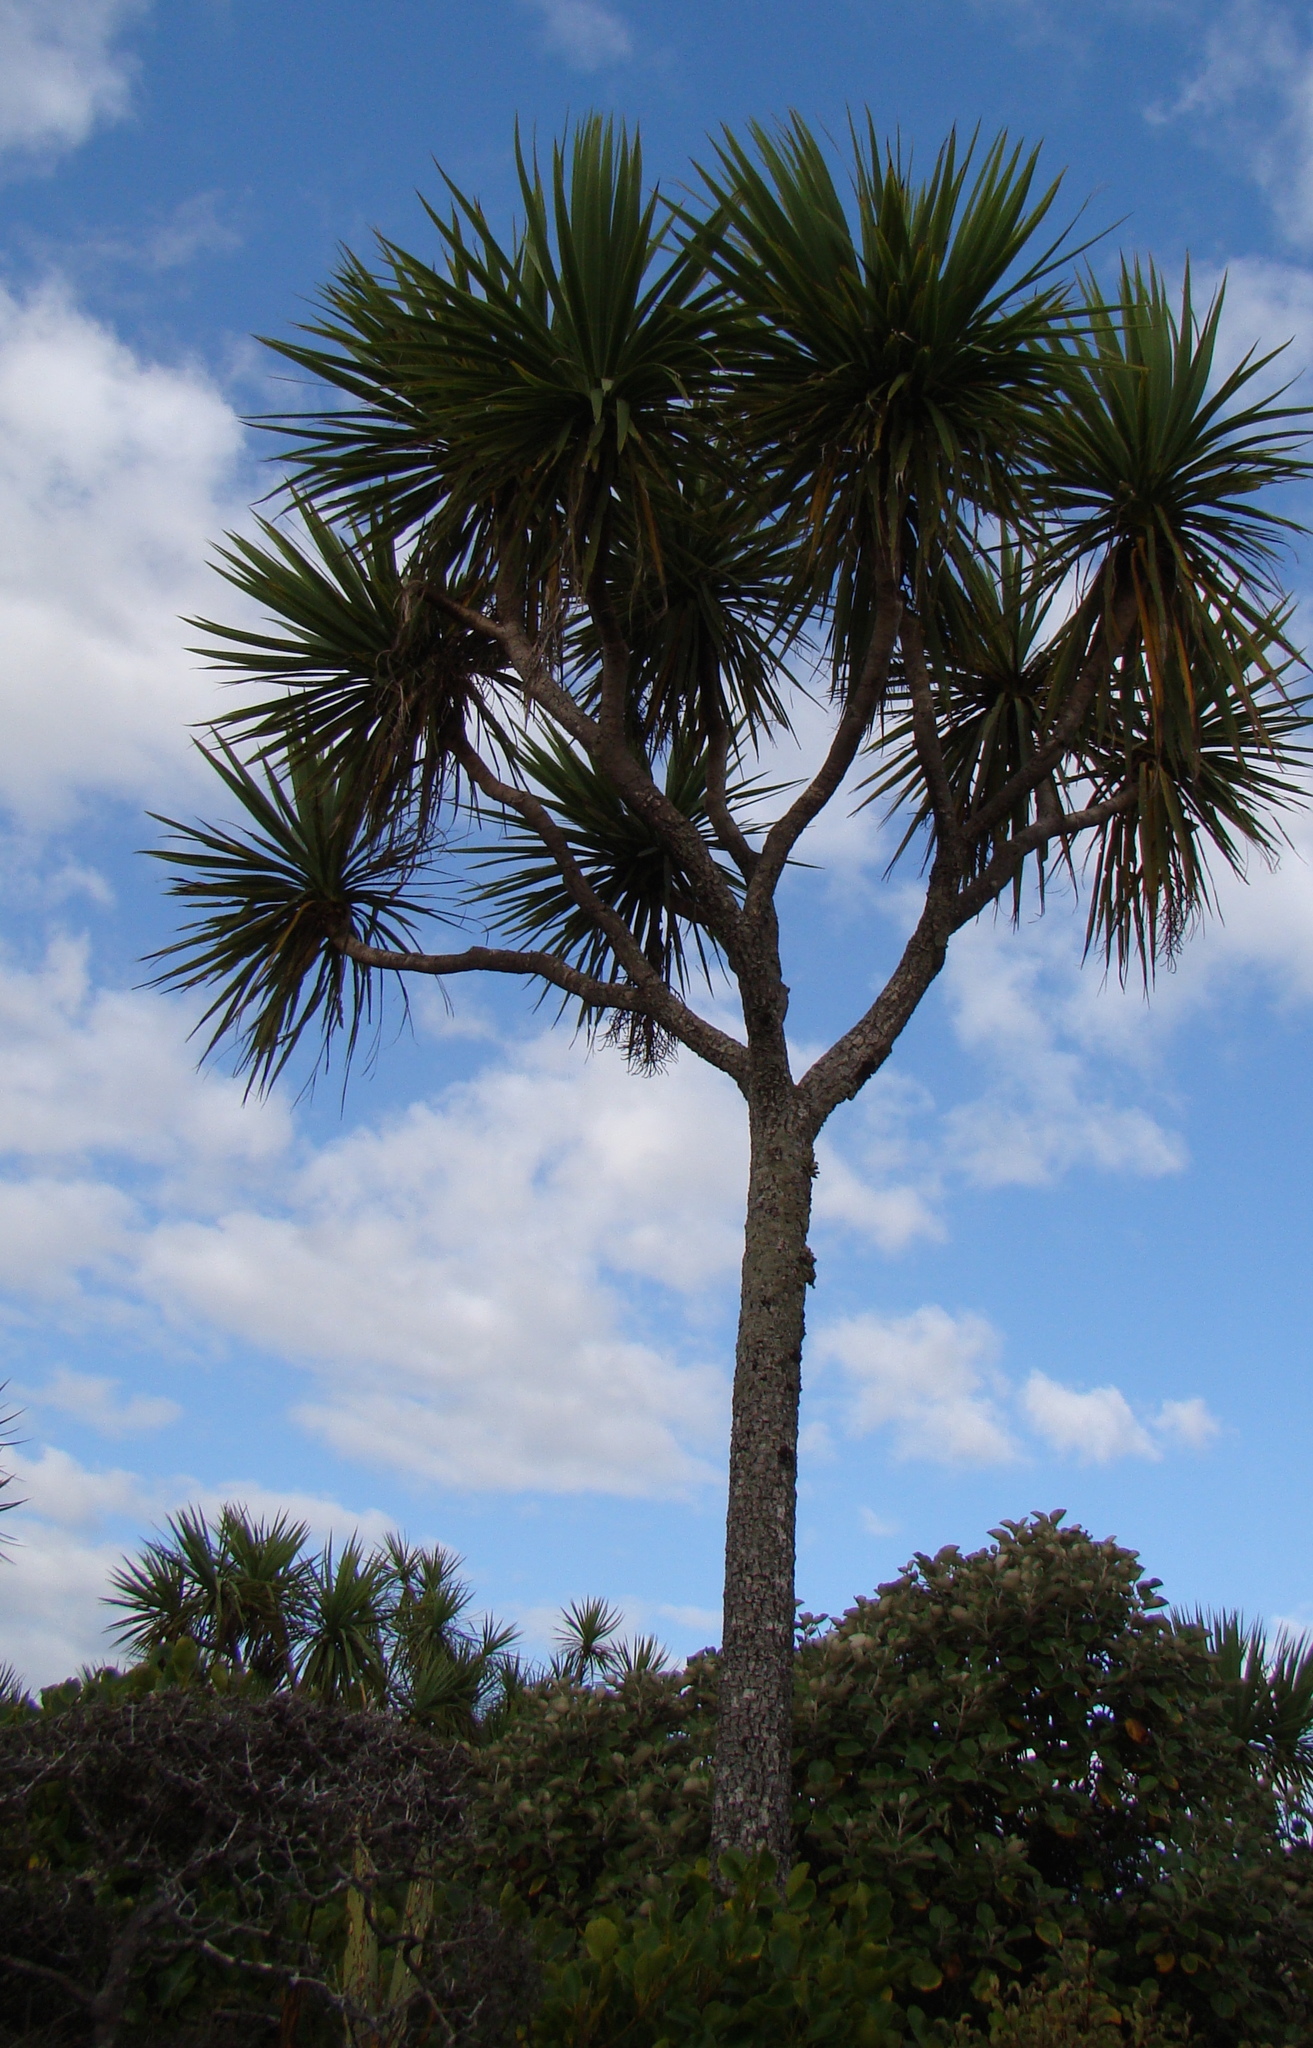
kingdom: Plantae
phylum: Tracheophyta
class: Liliopsida
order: Asparagales
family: Asparagaceae
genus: Cordyline
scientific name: Cordyline australis
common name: Cabbage-palm
